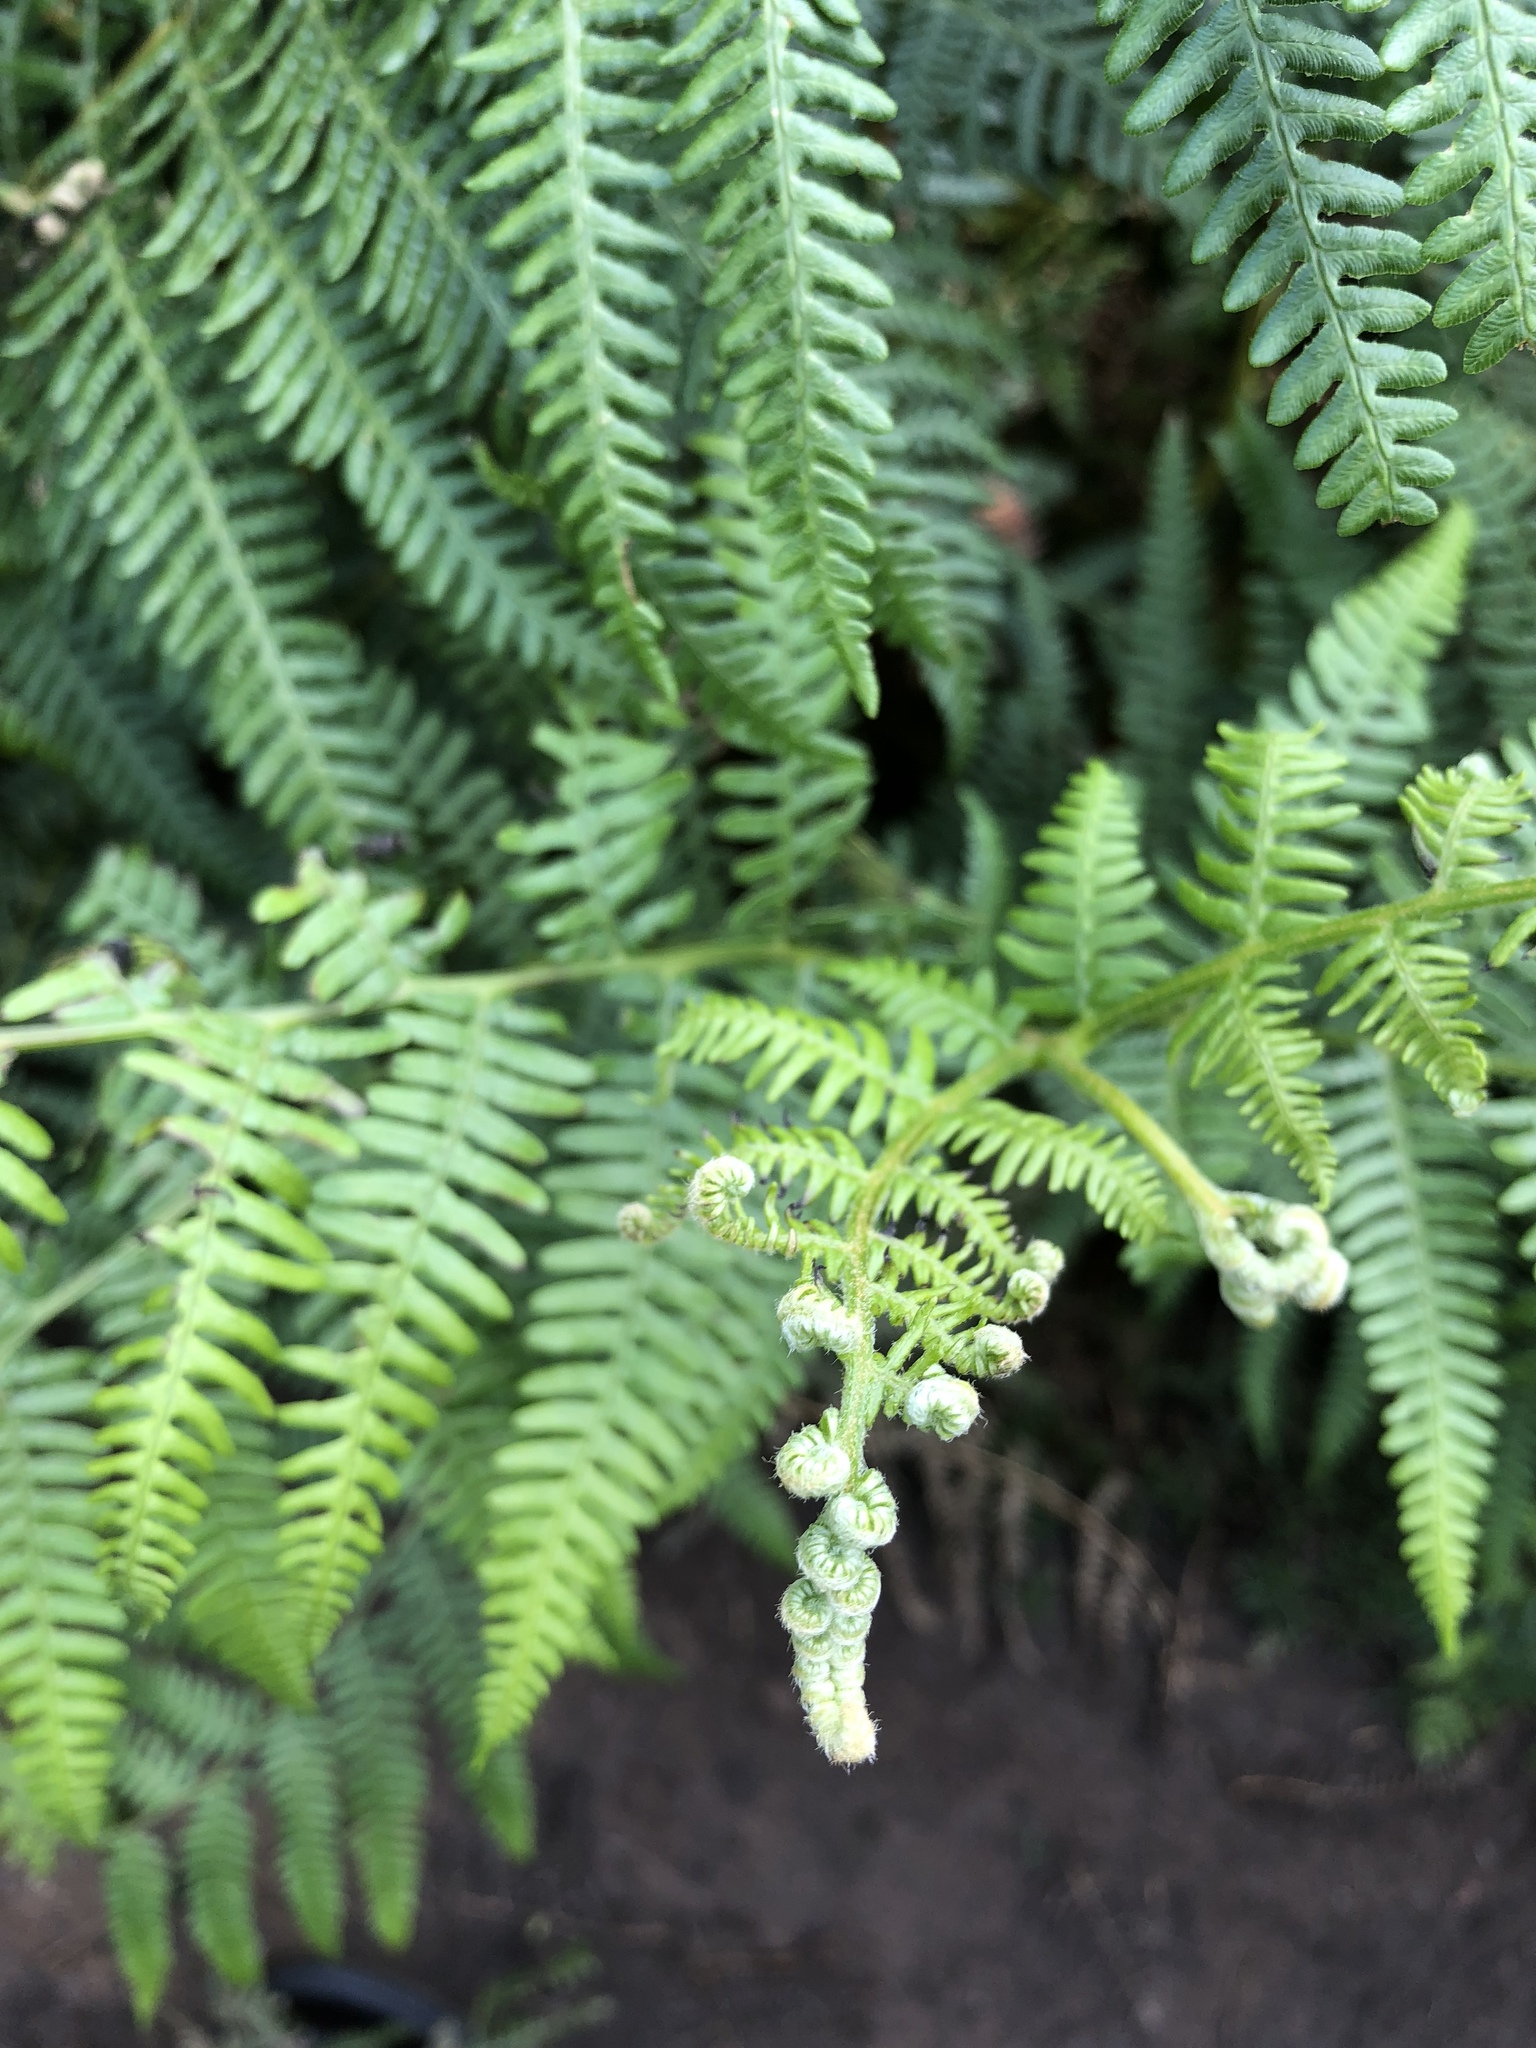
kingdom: Plantae
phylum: Tracheophyta
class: Polypodiopsida
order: Polypodiales
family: Dennstaedtiaceae
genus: Pteridium
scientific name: Pteridium aquilinum
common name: Bracken
